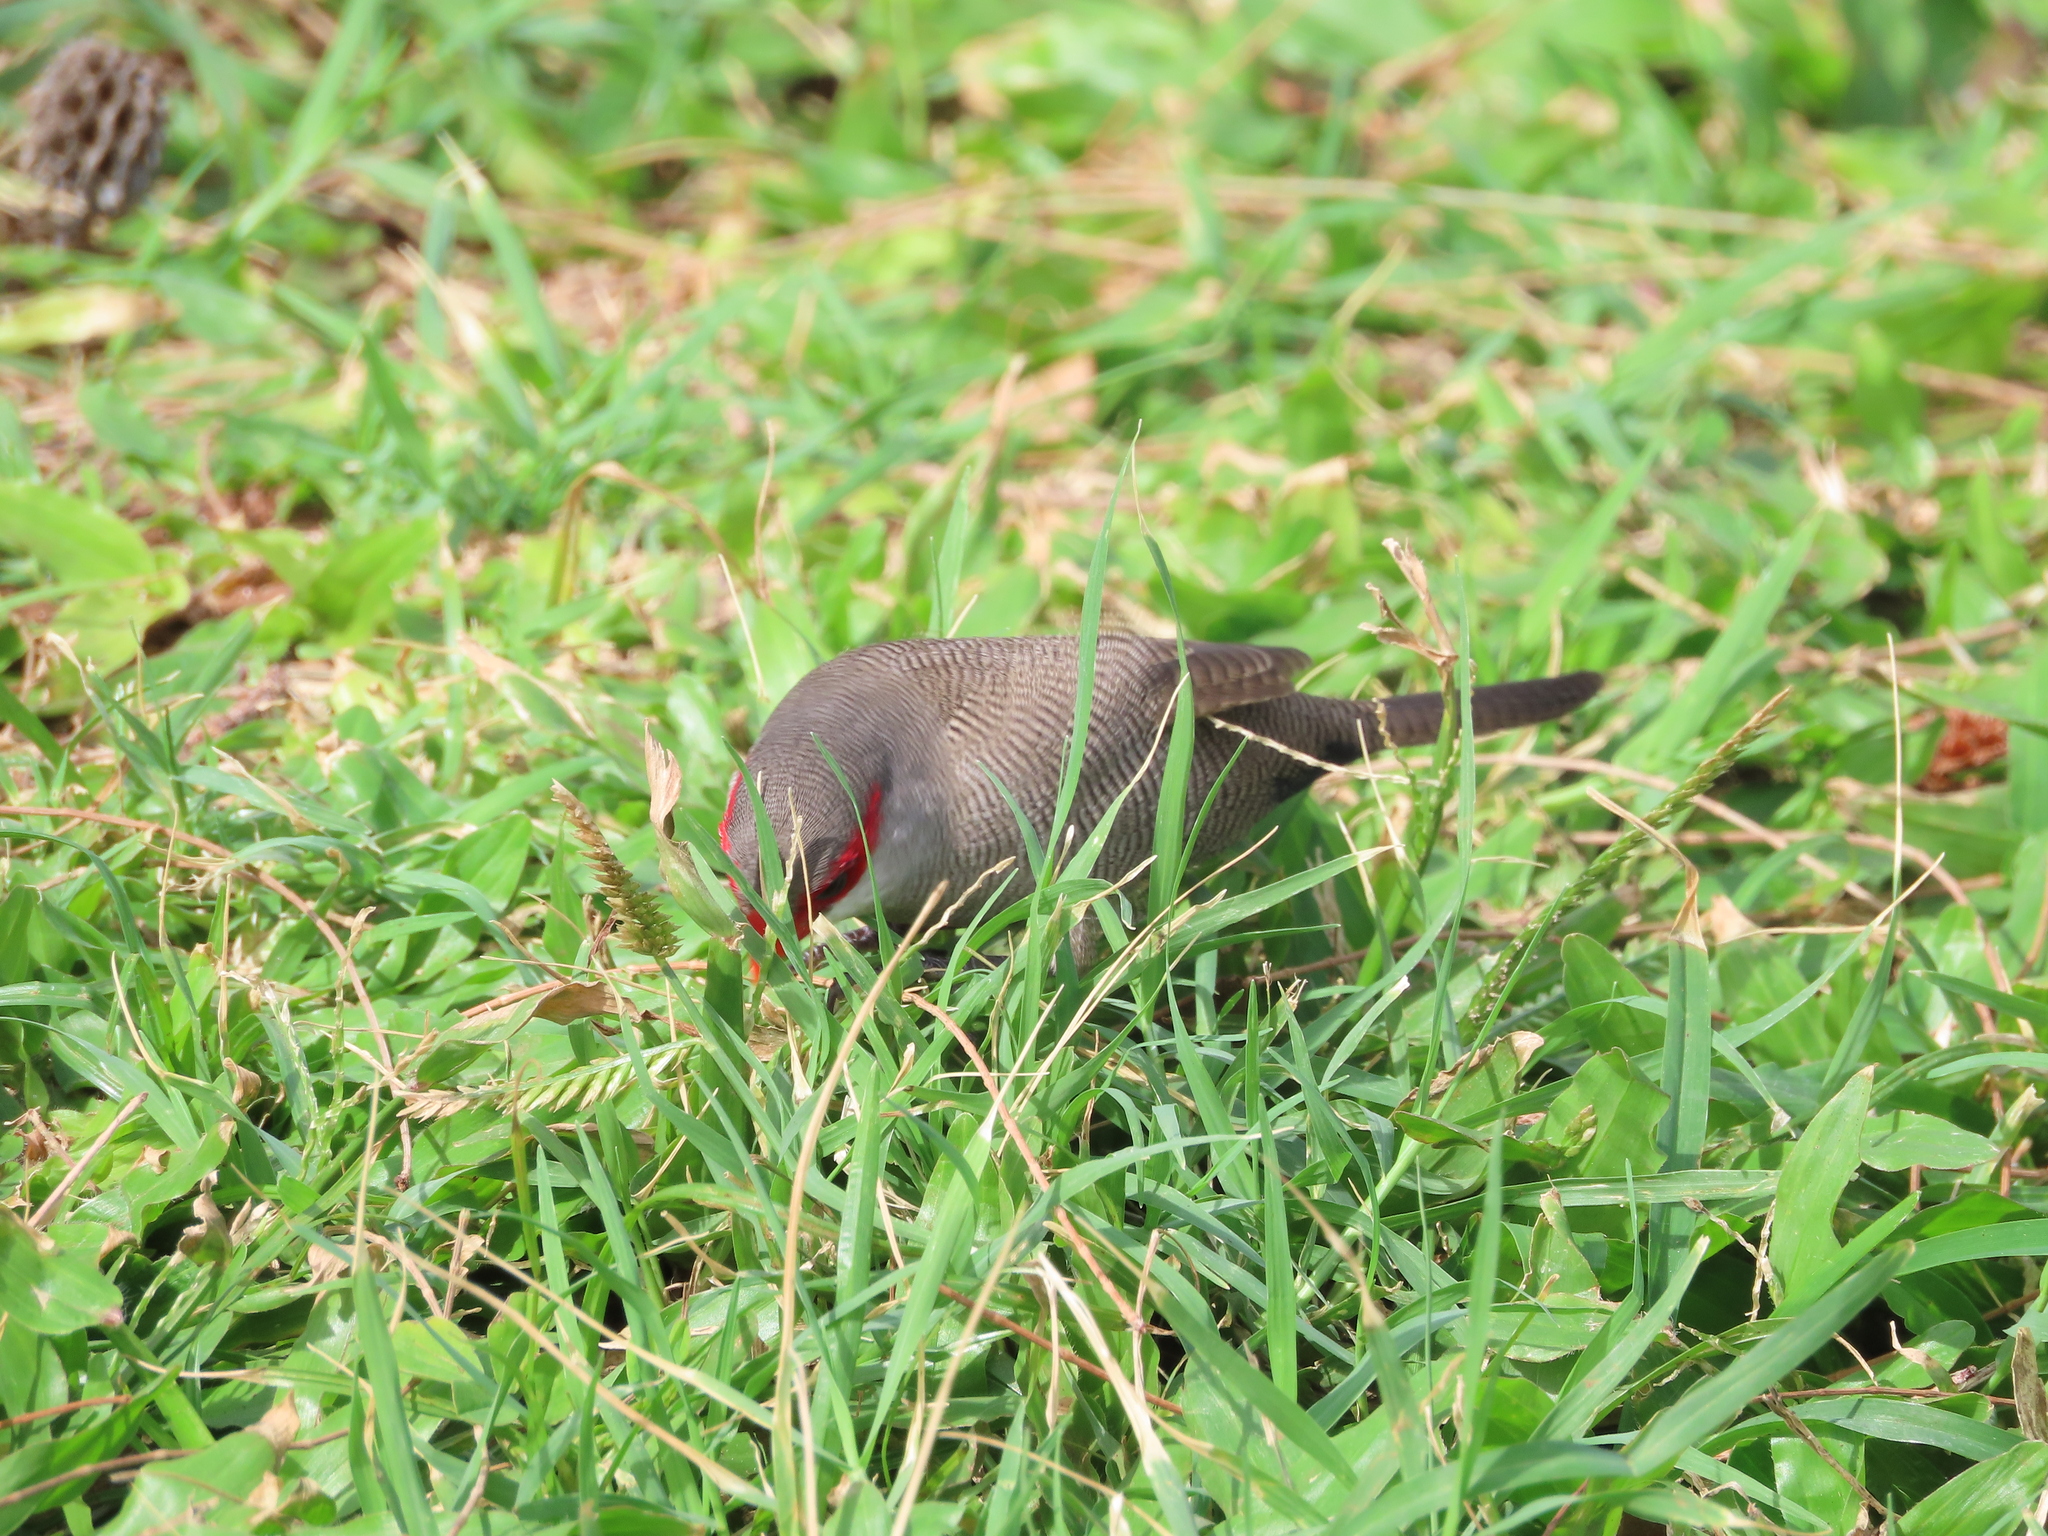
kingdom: Animalia
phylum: Chordata
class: Aves
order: Passeriformes
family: Estrildidae
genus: Estrilda
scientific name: Estrilda astrild
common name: Common waxbill
